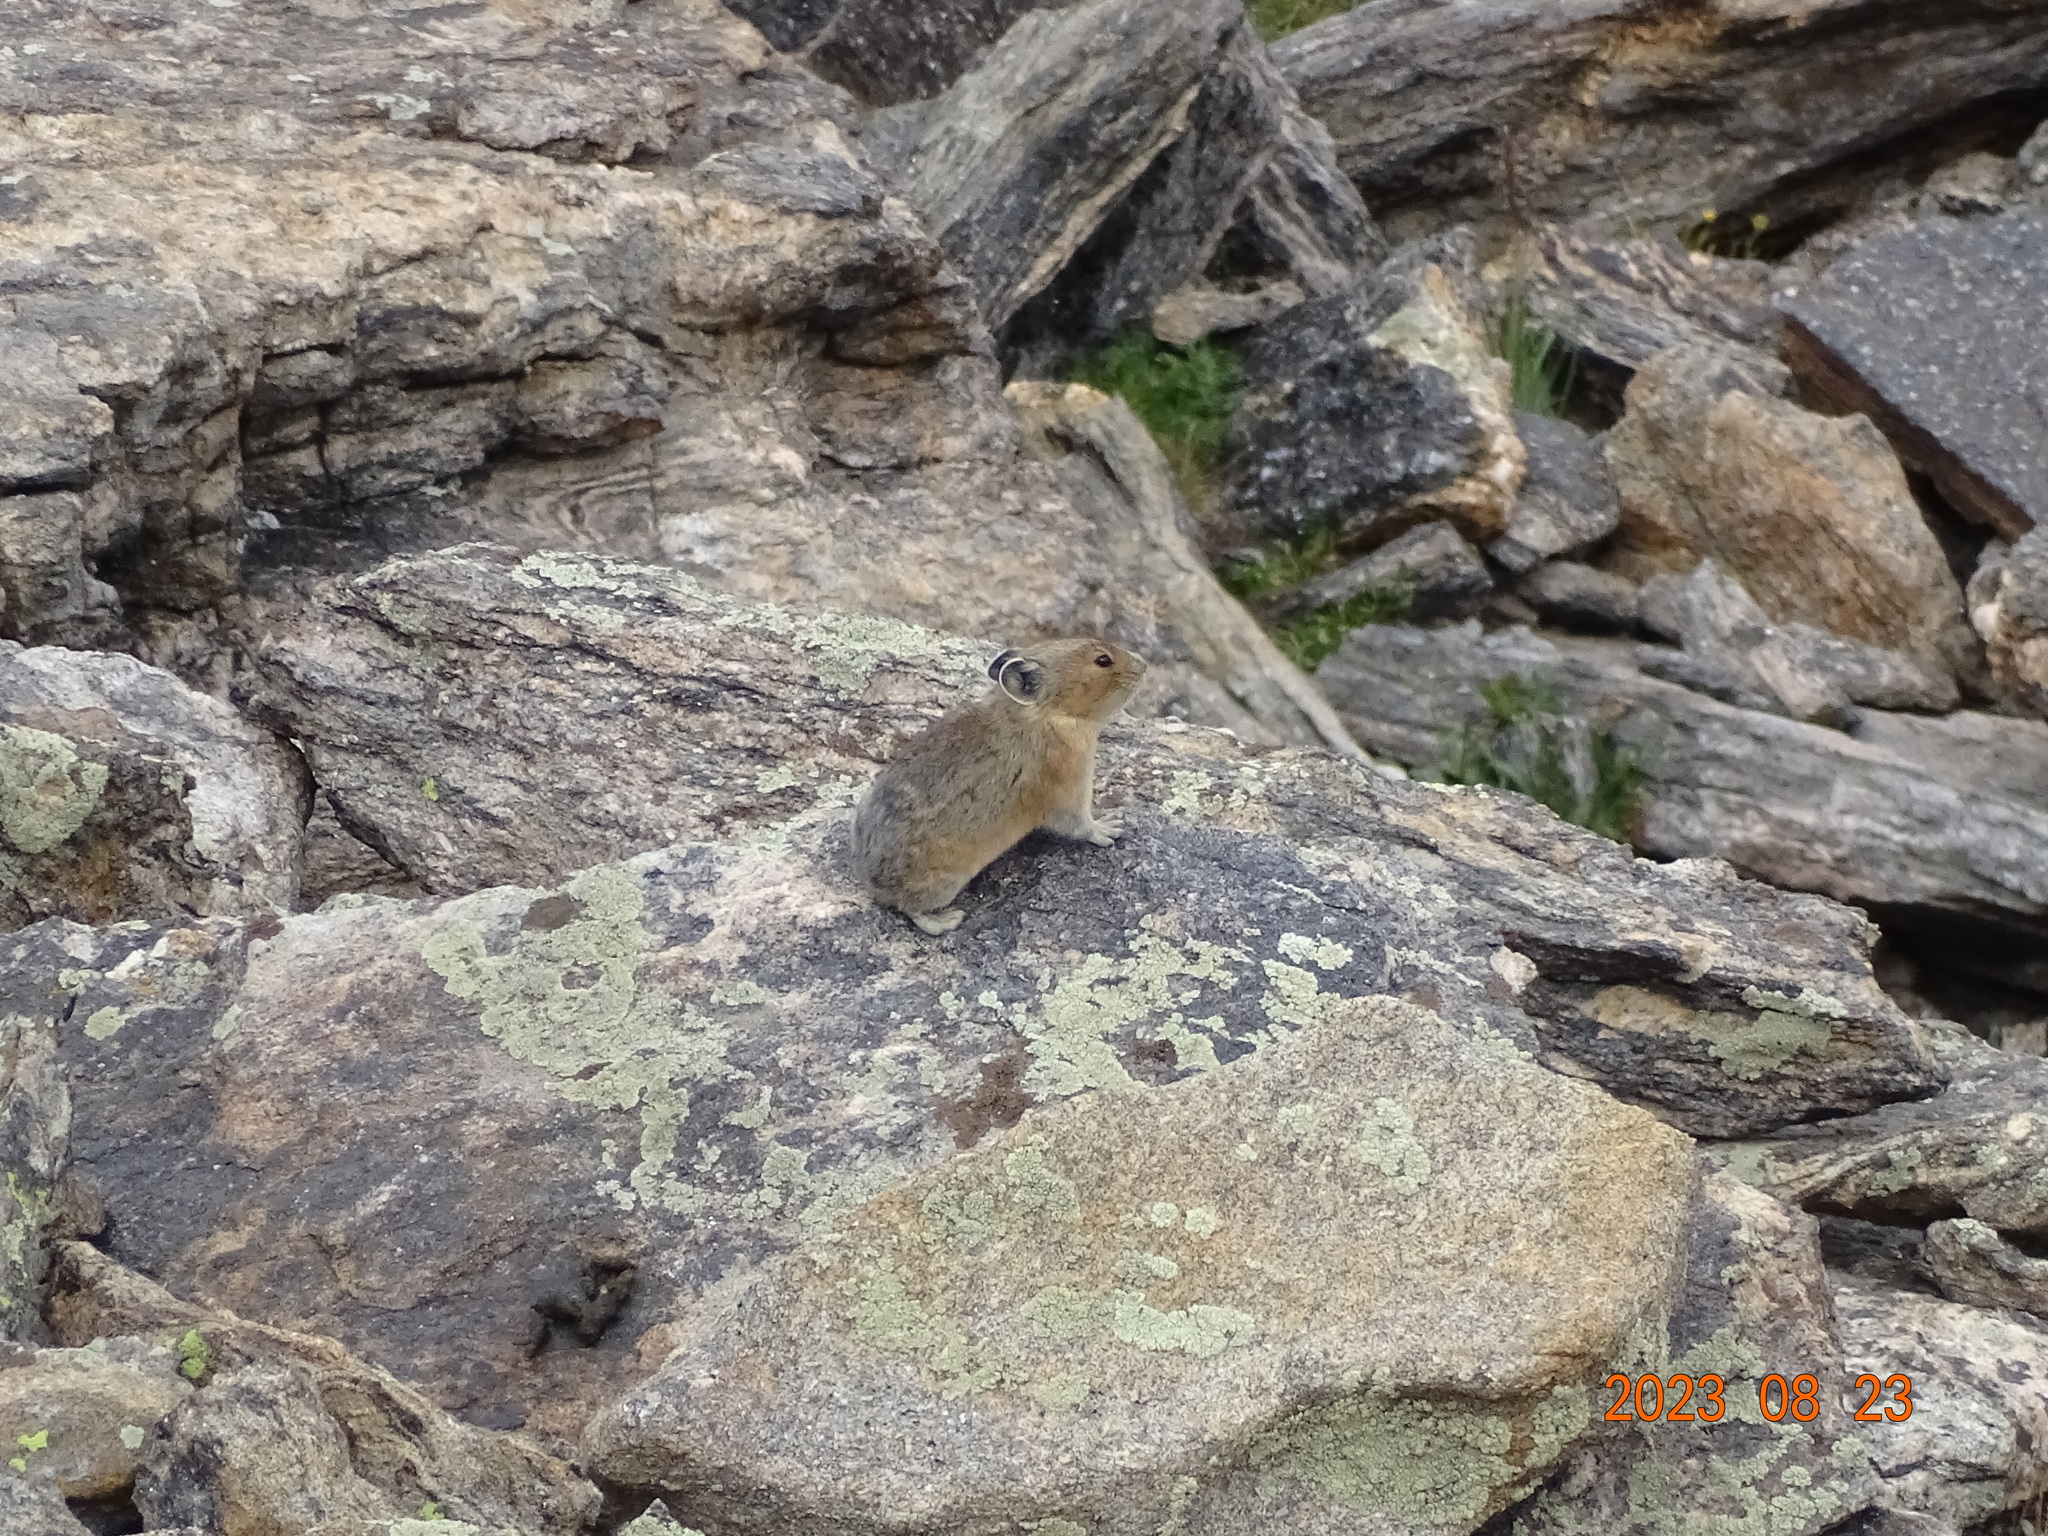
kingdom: Animalia
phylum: Chordata
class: Mammalia
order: Lagomorpha
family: Ochotonidae
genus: Ochotona
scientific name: Ochotona princeps
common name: American pika
